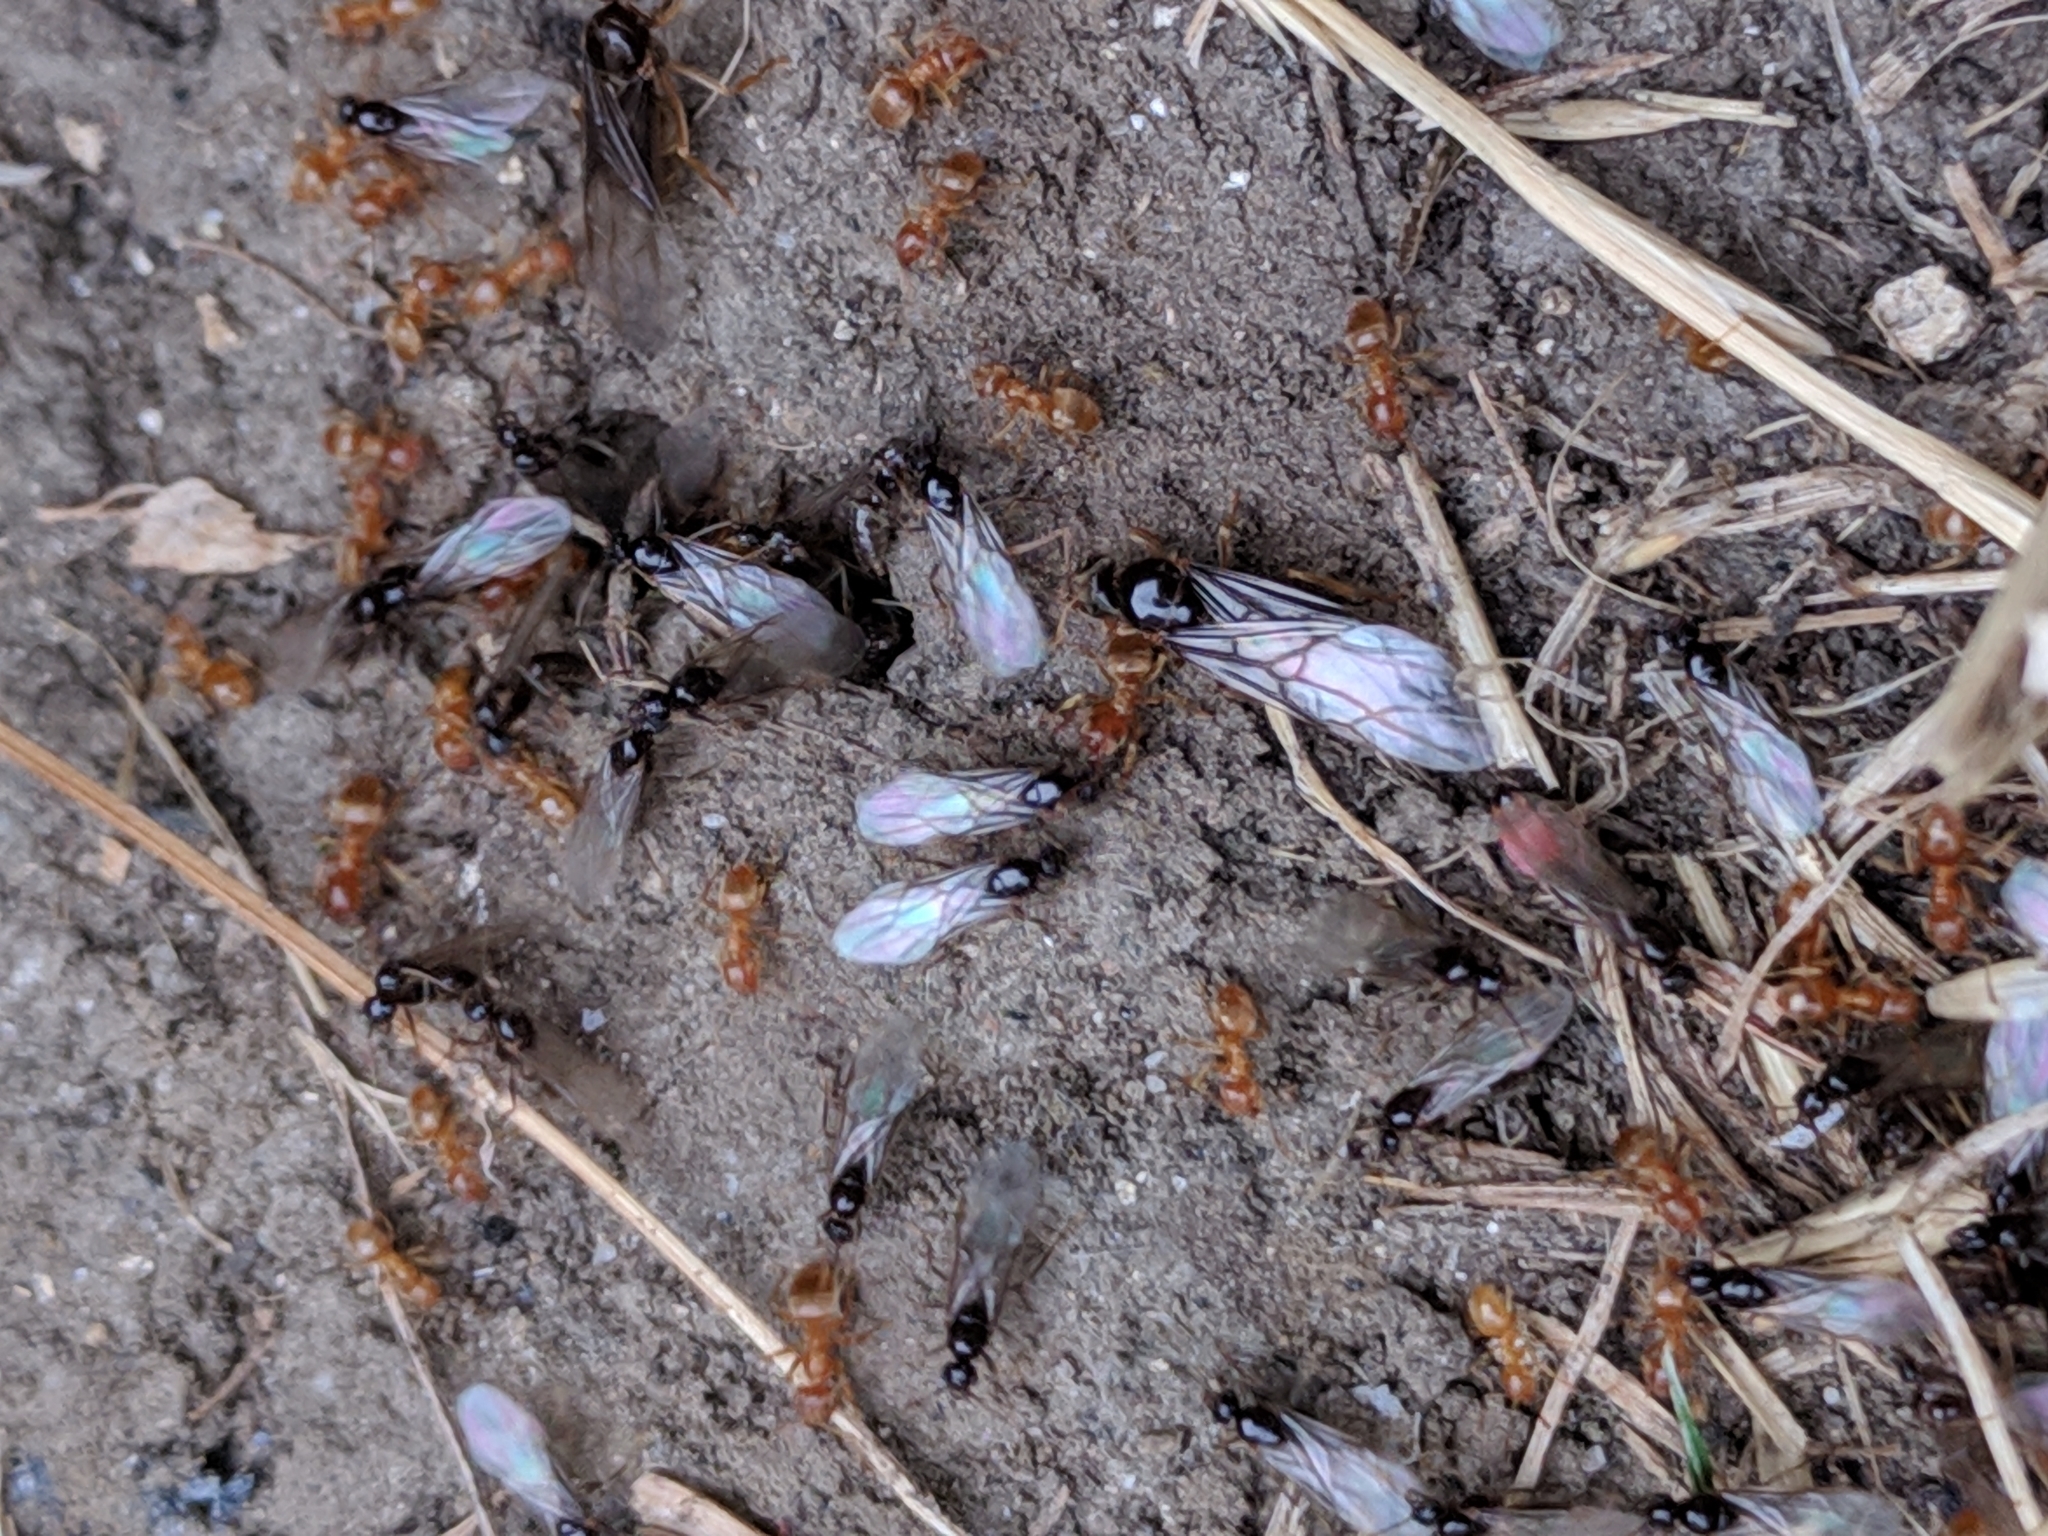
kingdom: Animalia
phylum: Arthropoda
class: Insecta
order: Hymenoptera
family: Formicidae
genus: Cautolasius
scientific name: Cautolasius
